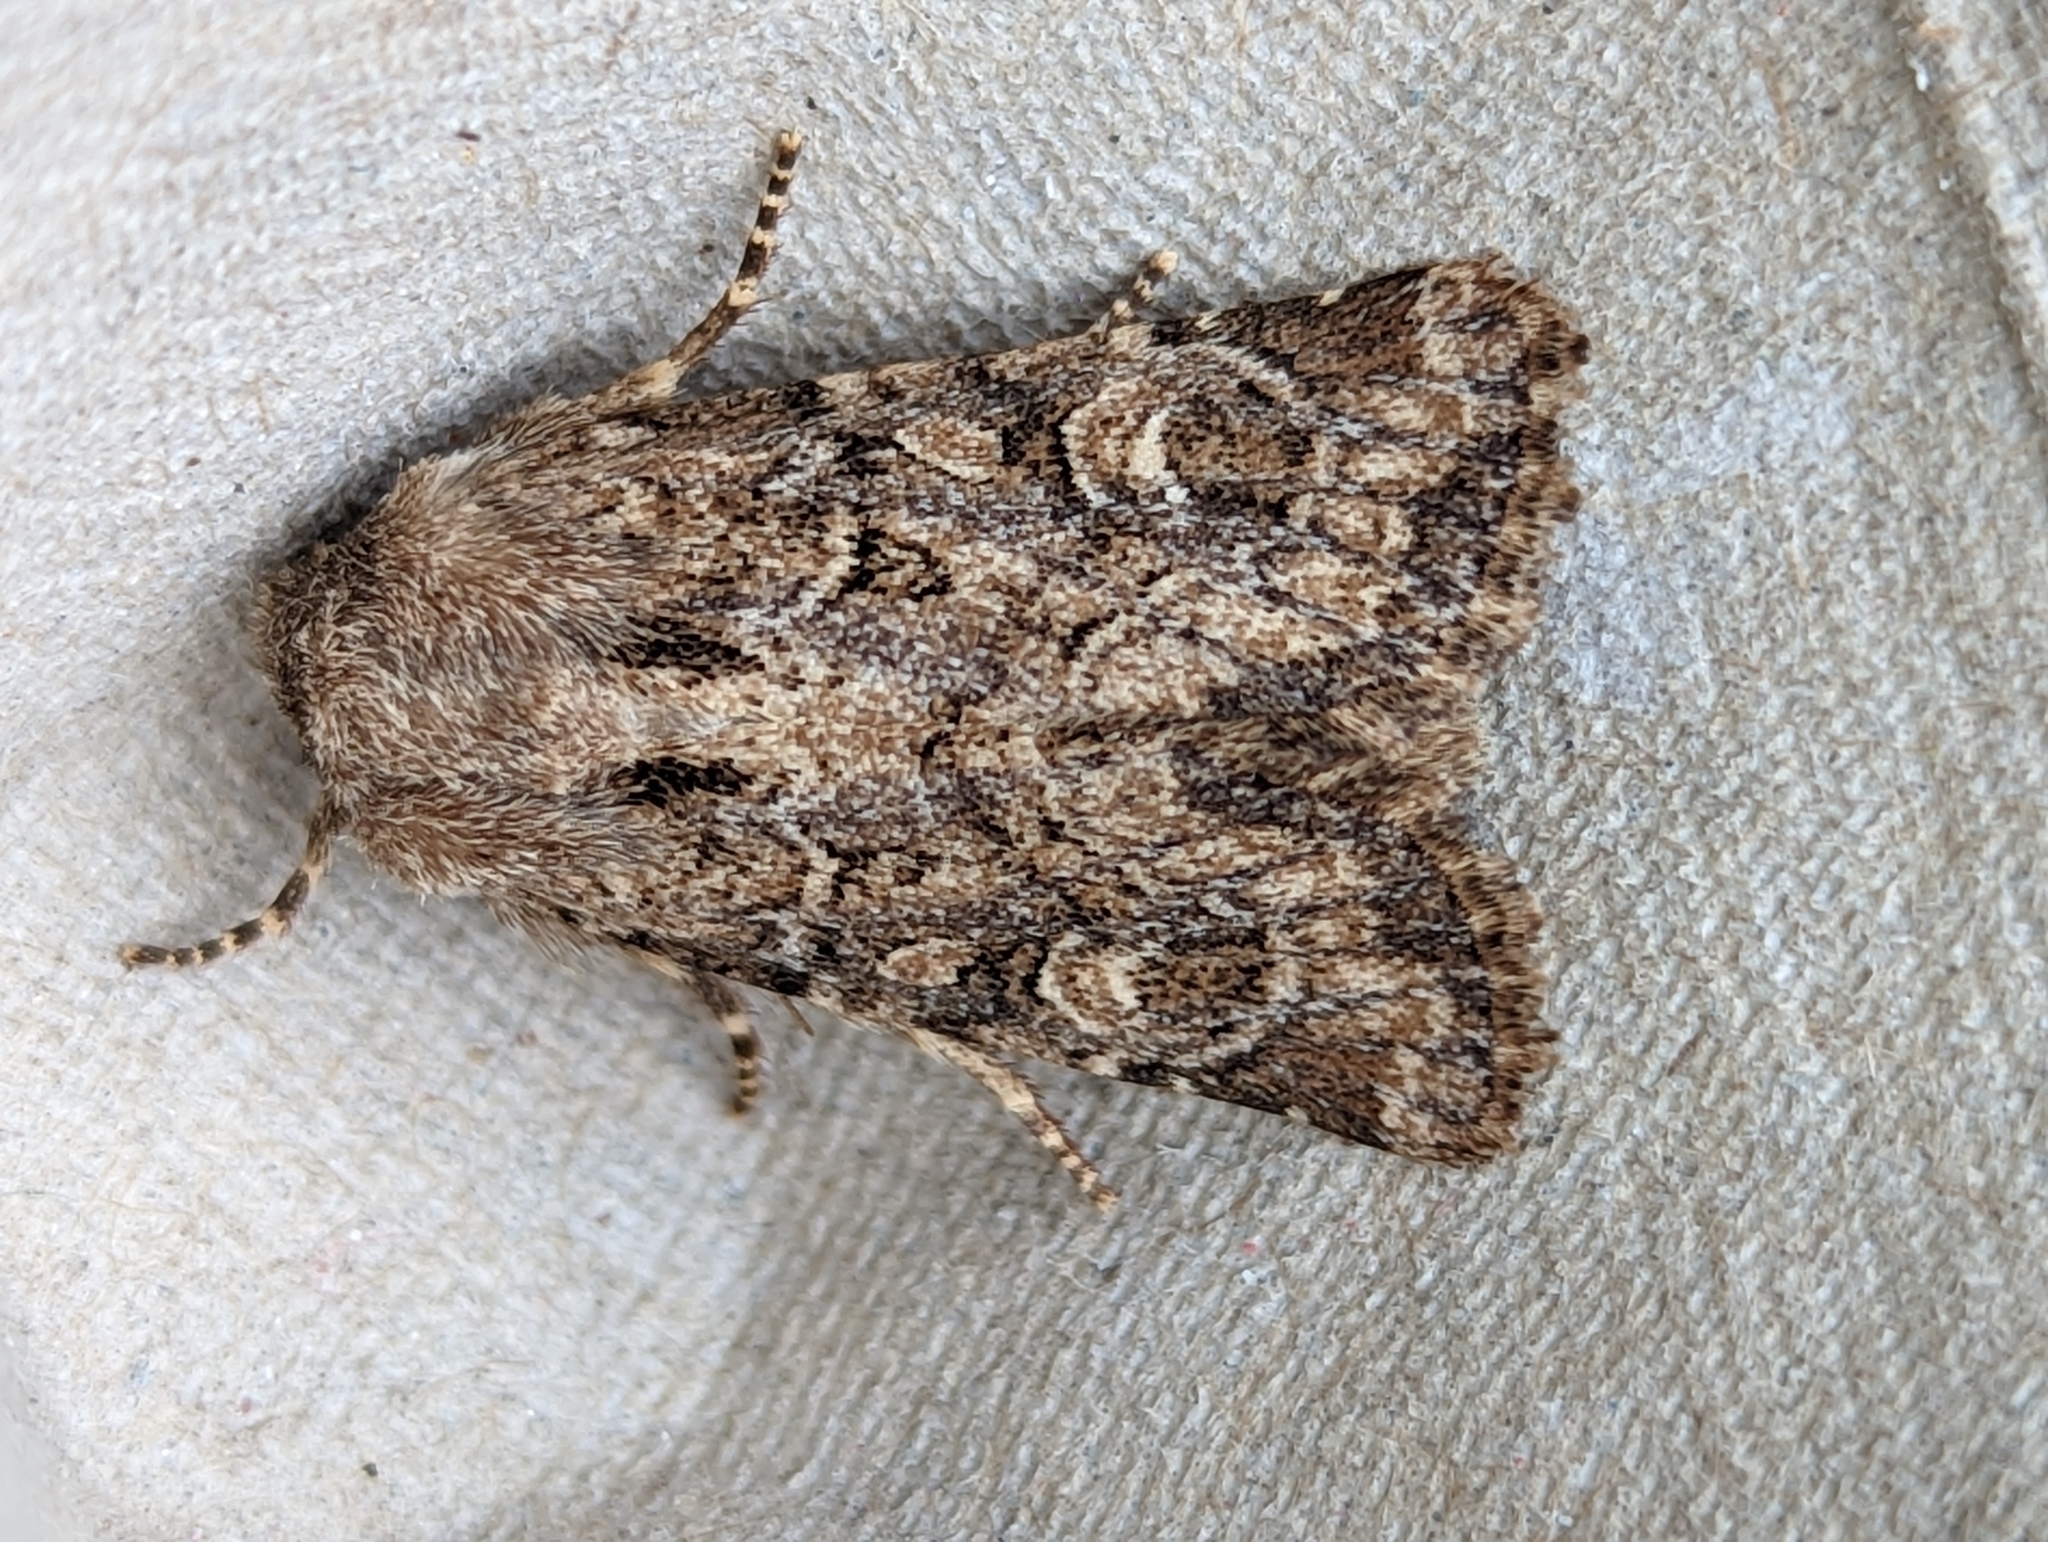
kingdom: Animalia
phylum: Arthropoda
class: Insecta
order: Lepidoptera
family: Noctuidae
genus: Luperina
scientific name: Luperina testacea
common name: Flounced rustic
